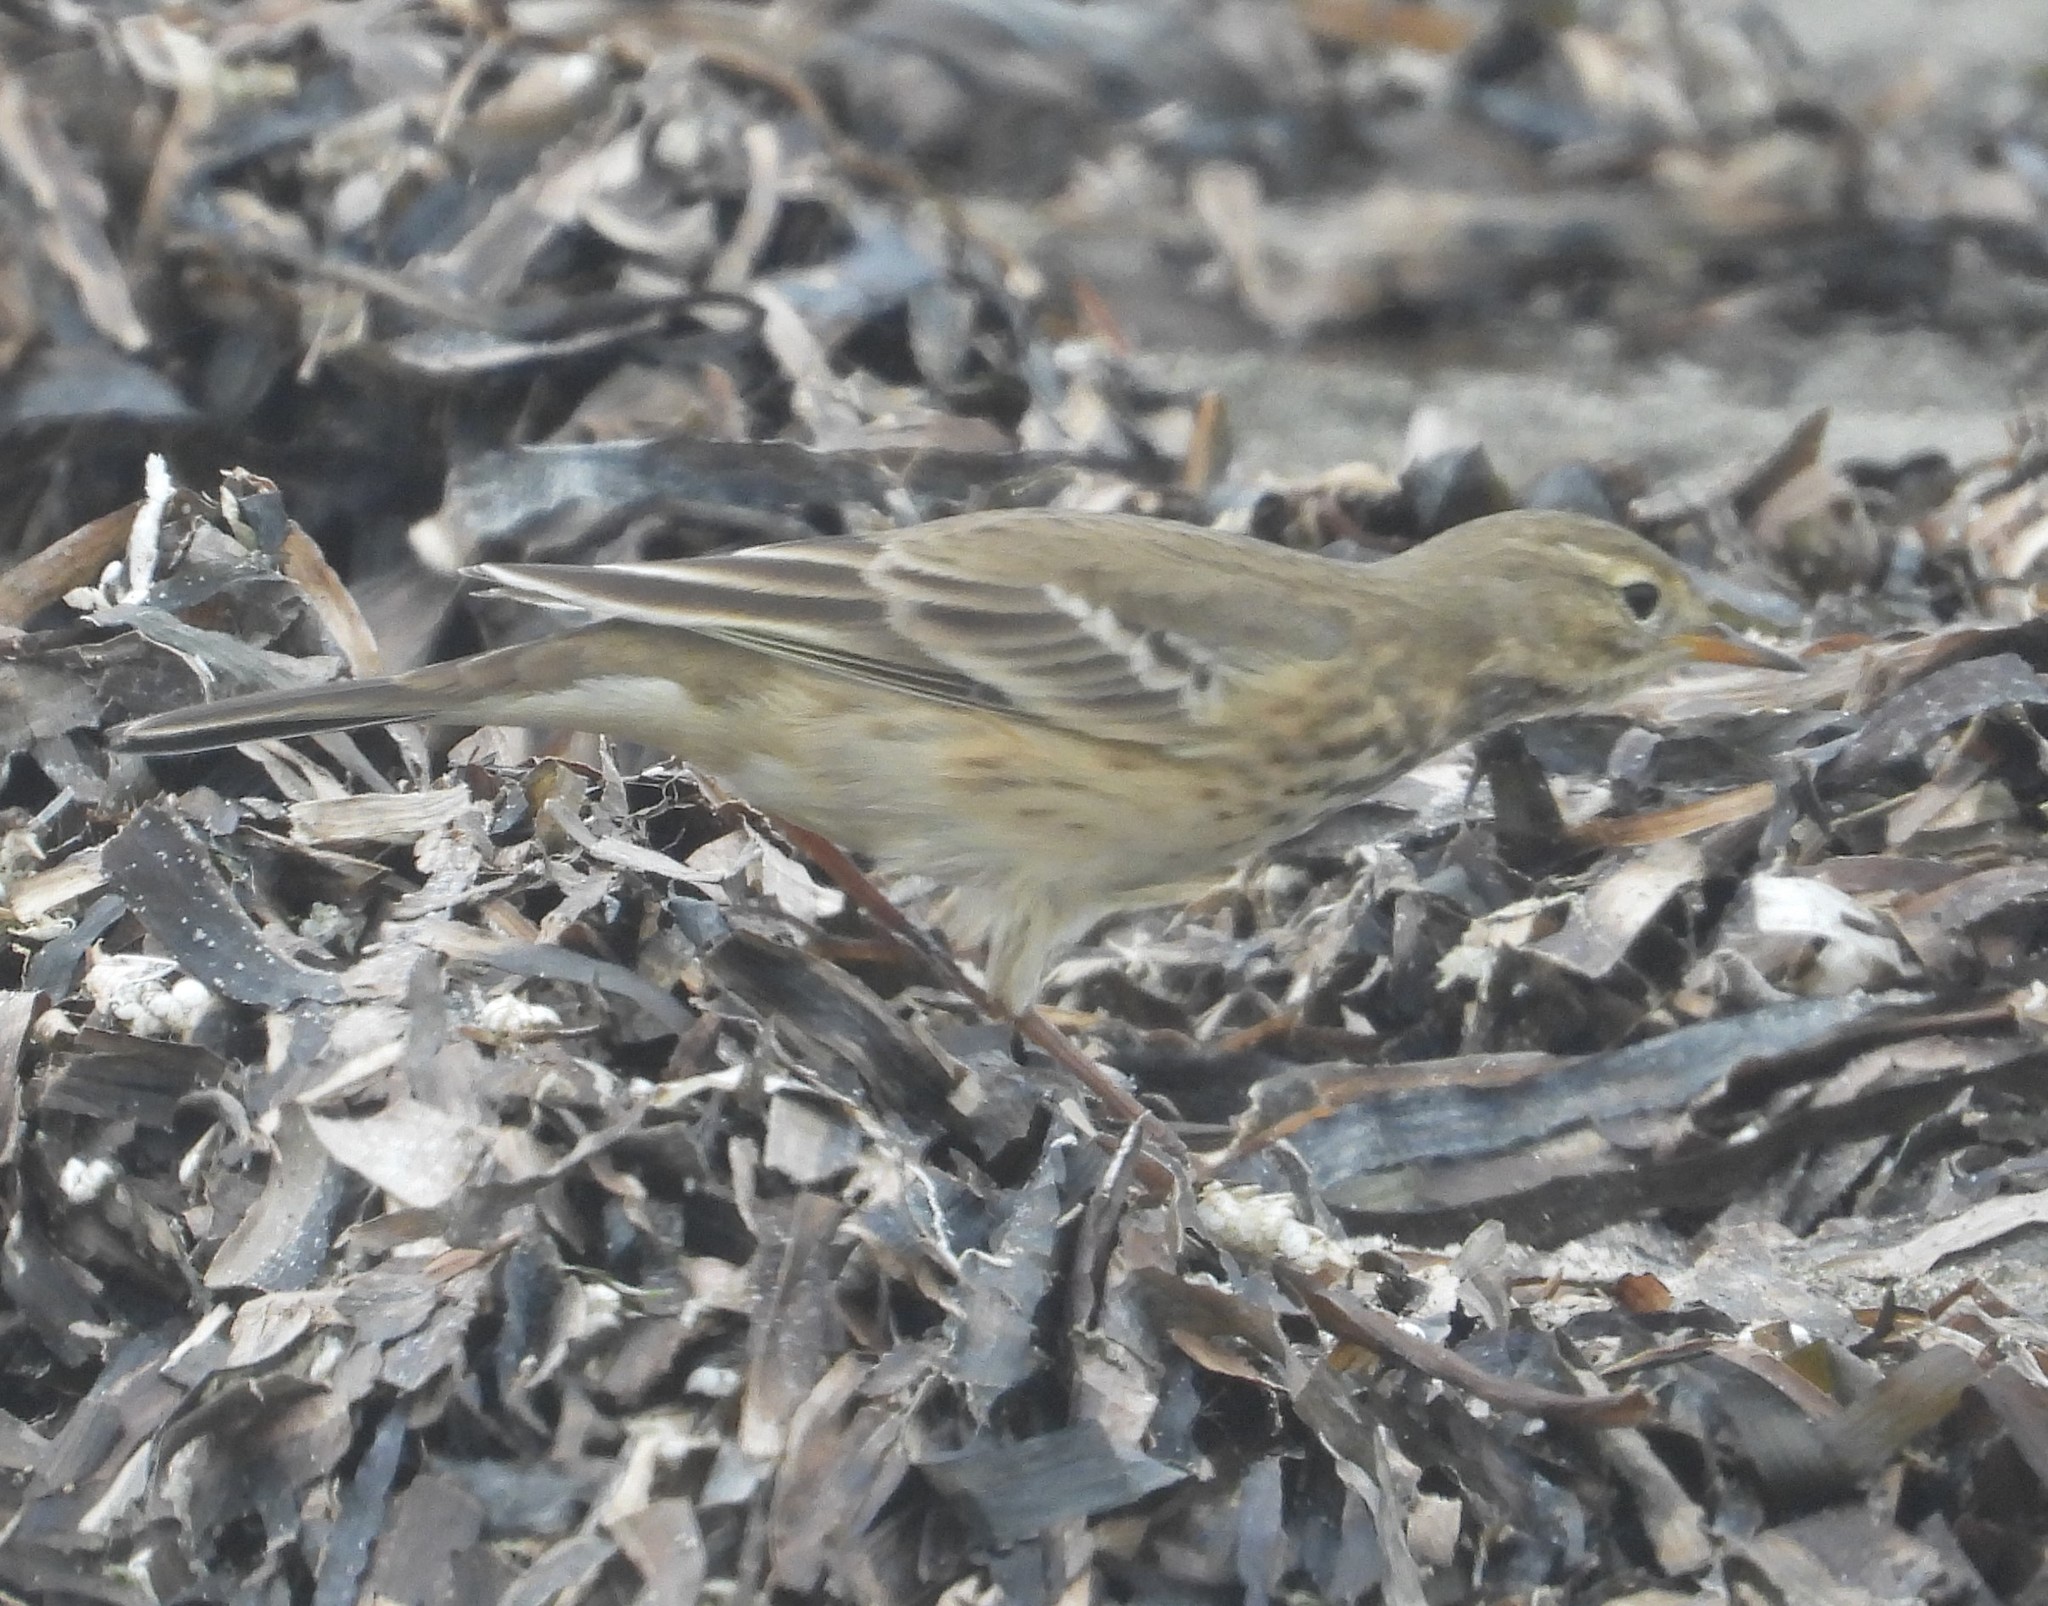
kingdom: Animalia
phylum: Chordata
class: Aves
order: Passeriformes
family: Motacillidae
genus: Anthus
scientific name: Anthus rubescens
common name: Buff-bellied pipit
